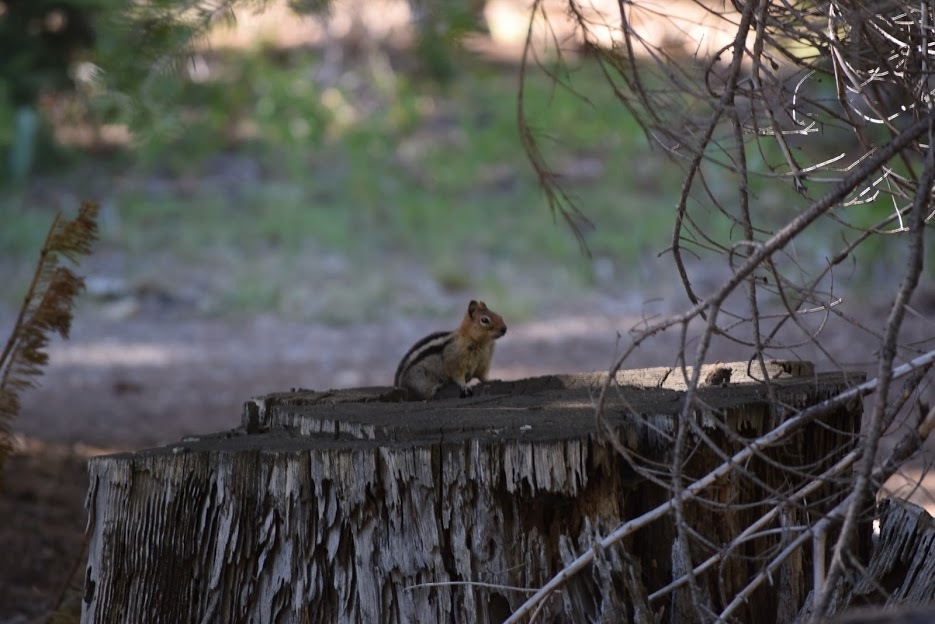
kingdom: Animalia
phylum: Chordata
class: Mammalia
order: Rodentia
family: Sciuridae
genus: Callospermophilus
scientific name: Callospermophilus lateralis
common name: Golden-mantled ground squirrel
